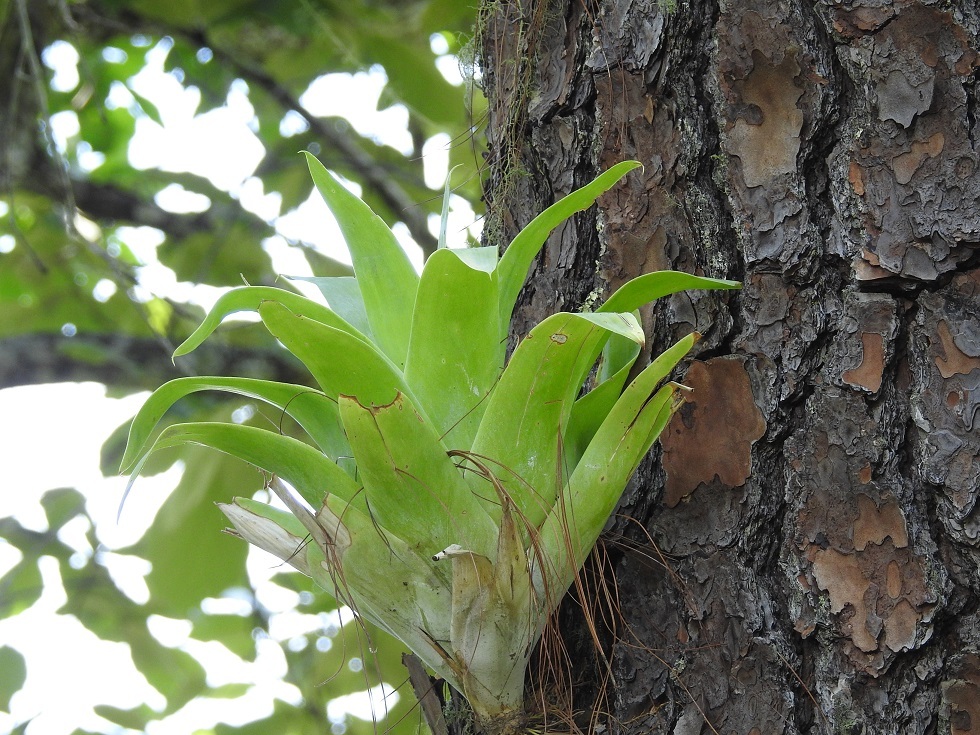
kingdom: Plantae
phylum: Tracheophyta
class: Liliopsida
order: Poales
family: Bromeliaceae
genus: Catopsis
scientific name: Catopsis berteroniana
